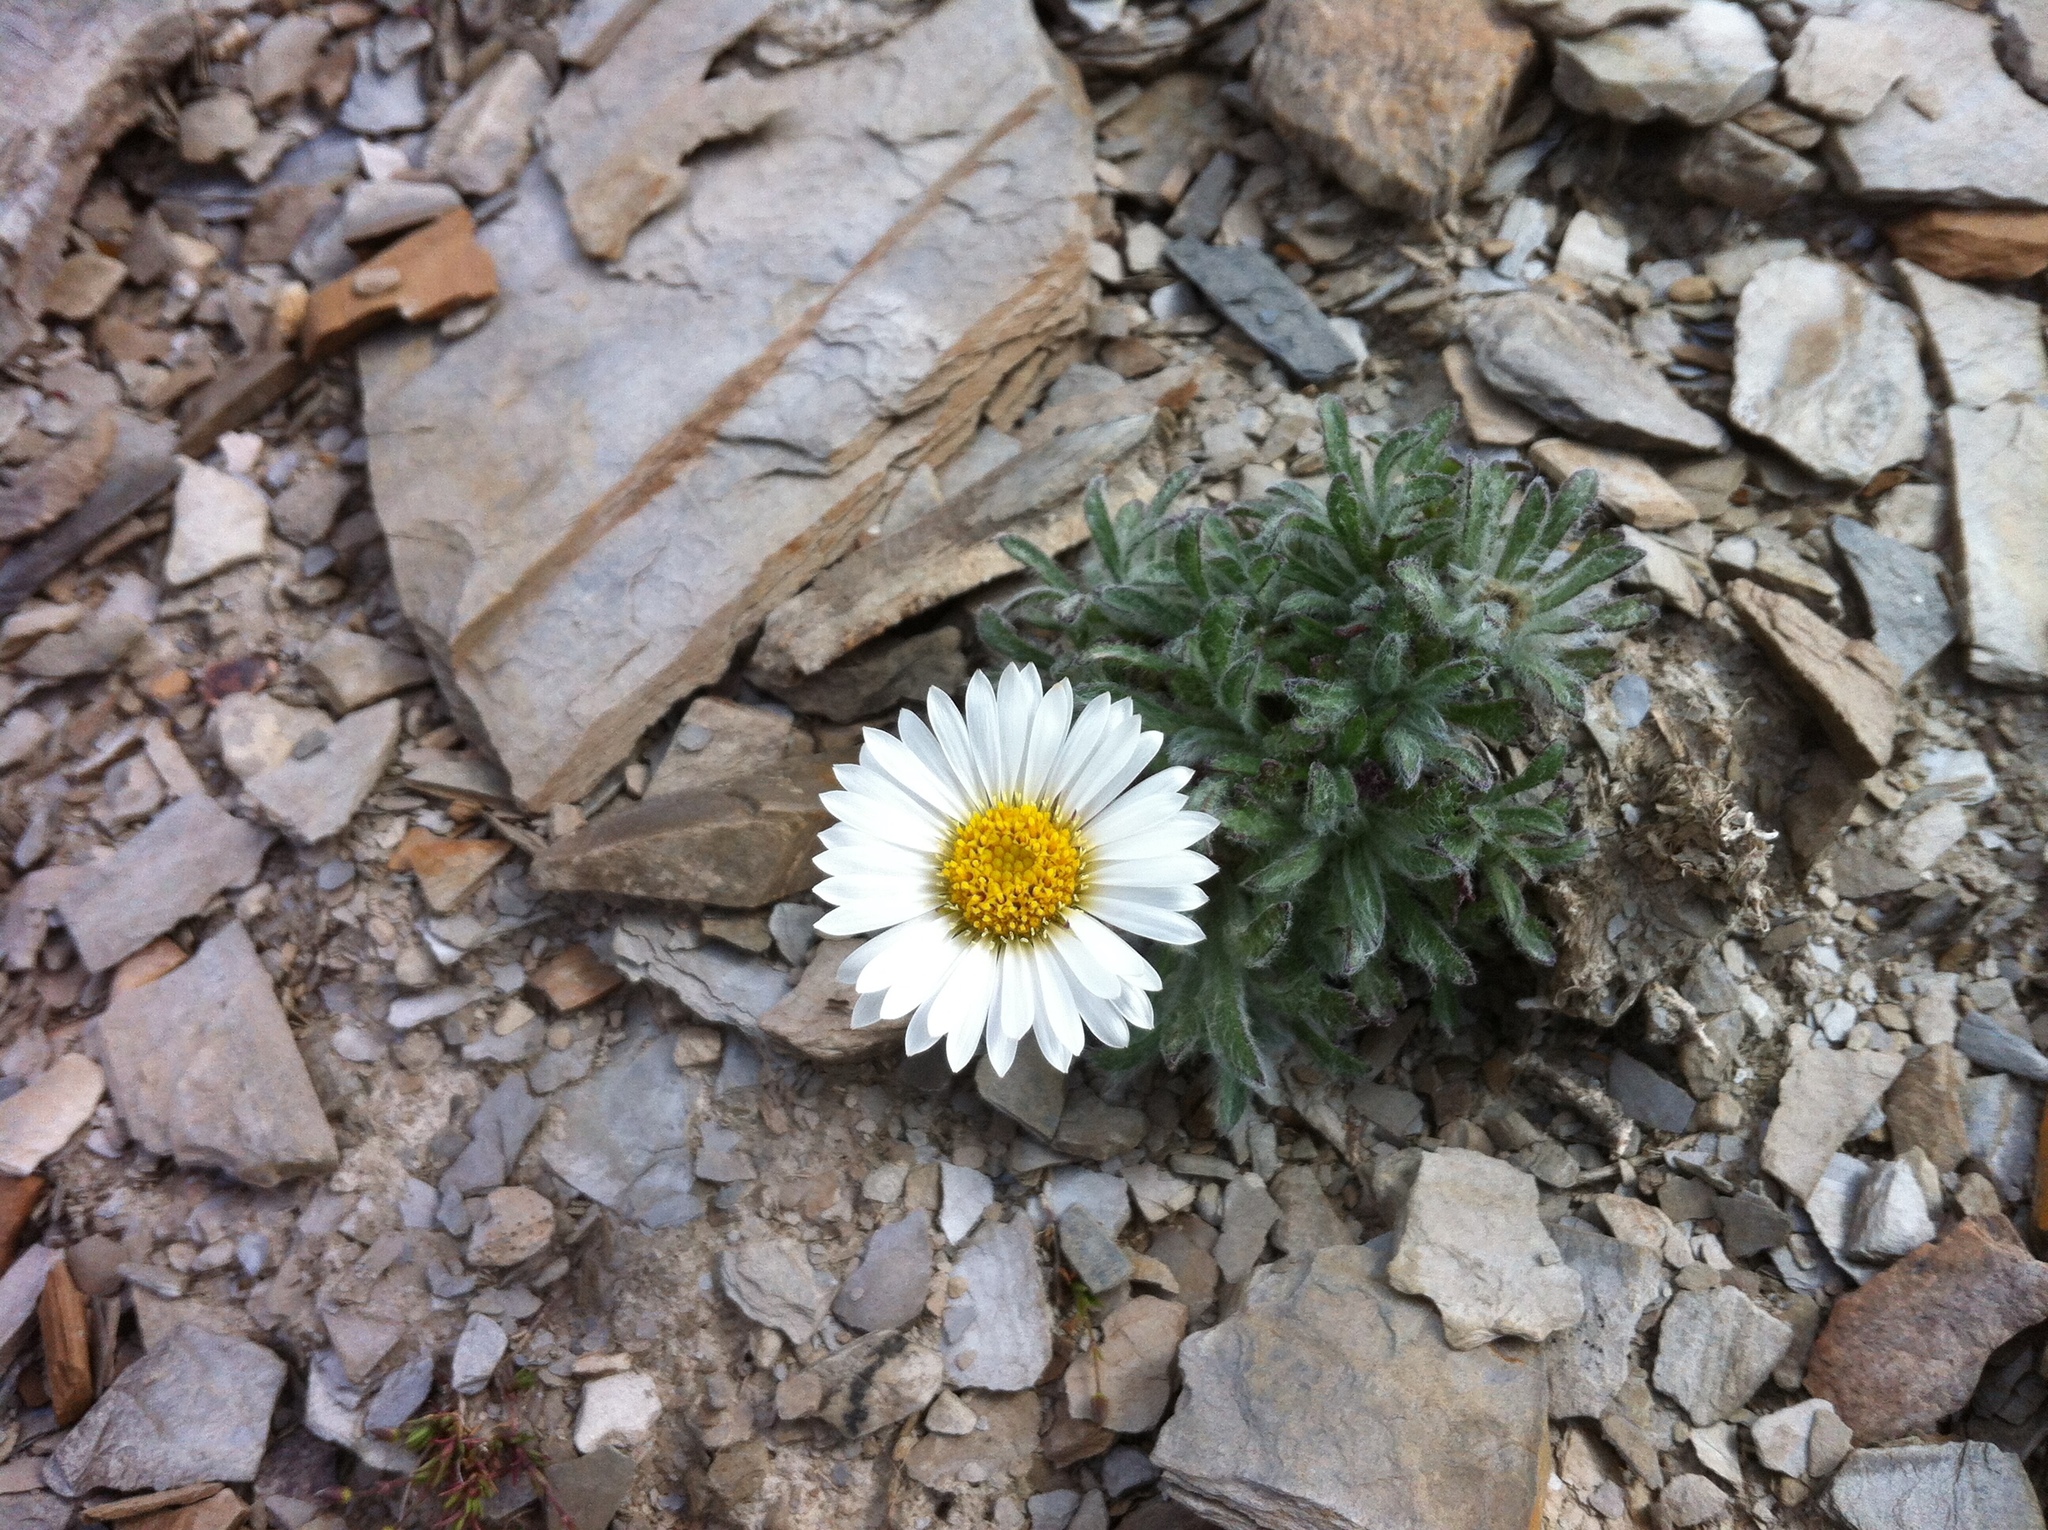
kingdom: Plantae
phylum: Tracheophyta
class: Magnoliopsida
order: Asterales
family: Asteraceae
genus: Erigeron
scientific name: Erigeron pallens
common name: Pale alpine fleabane
